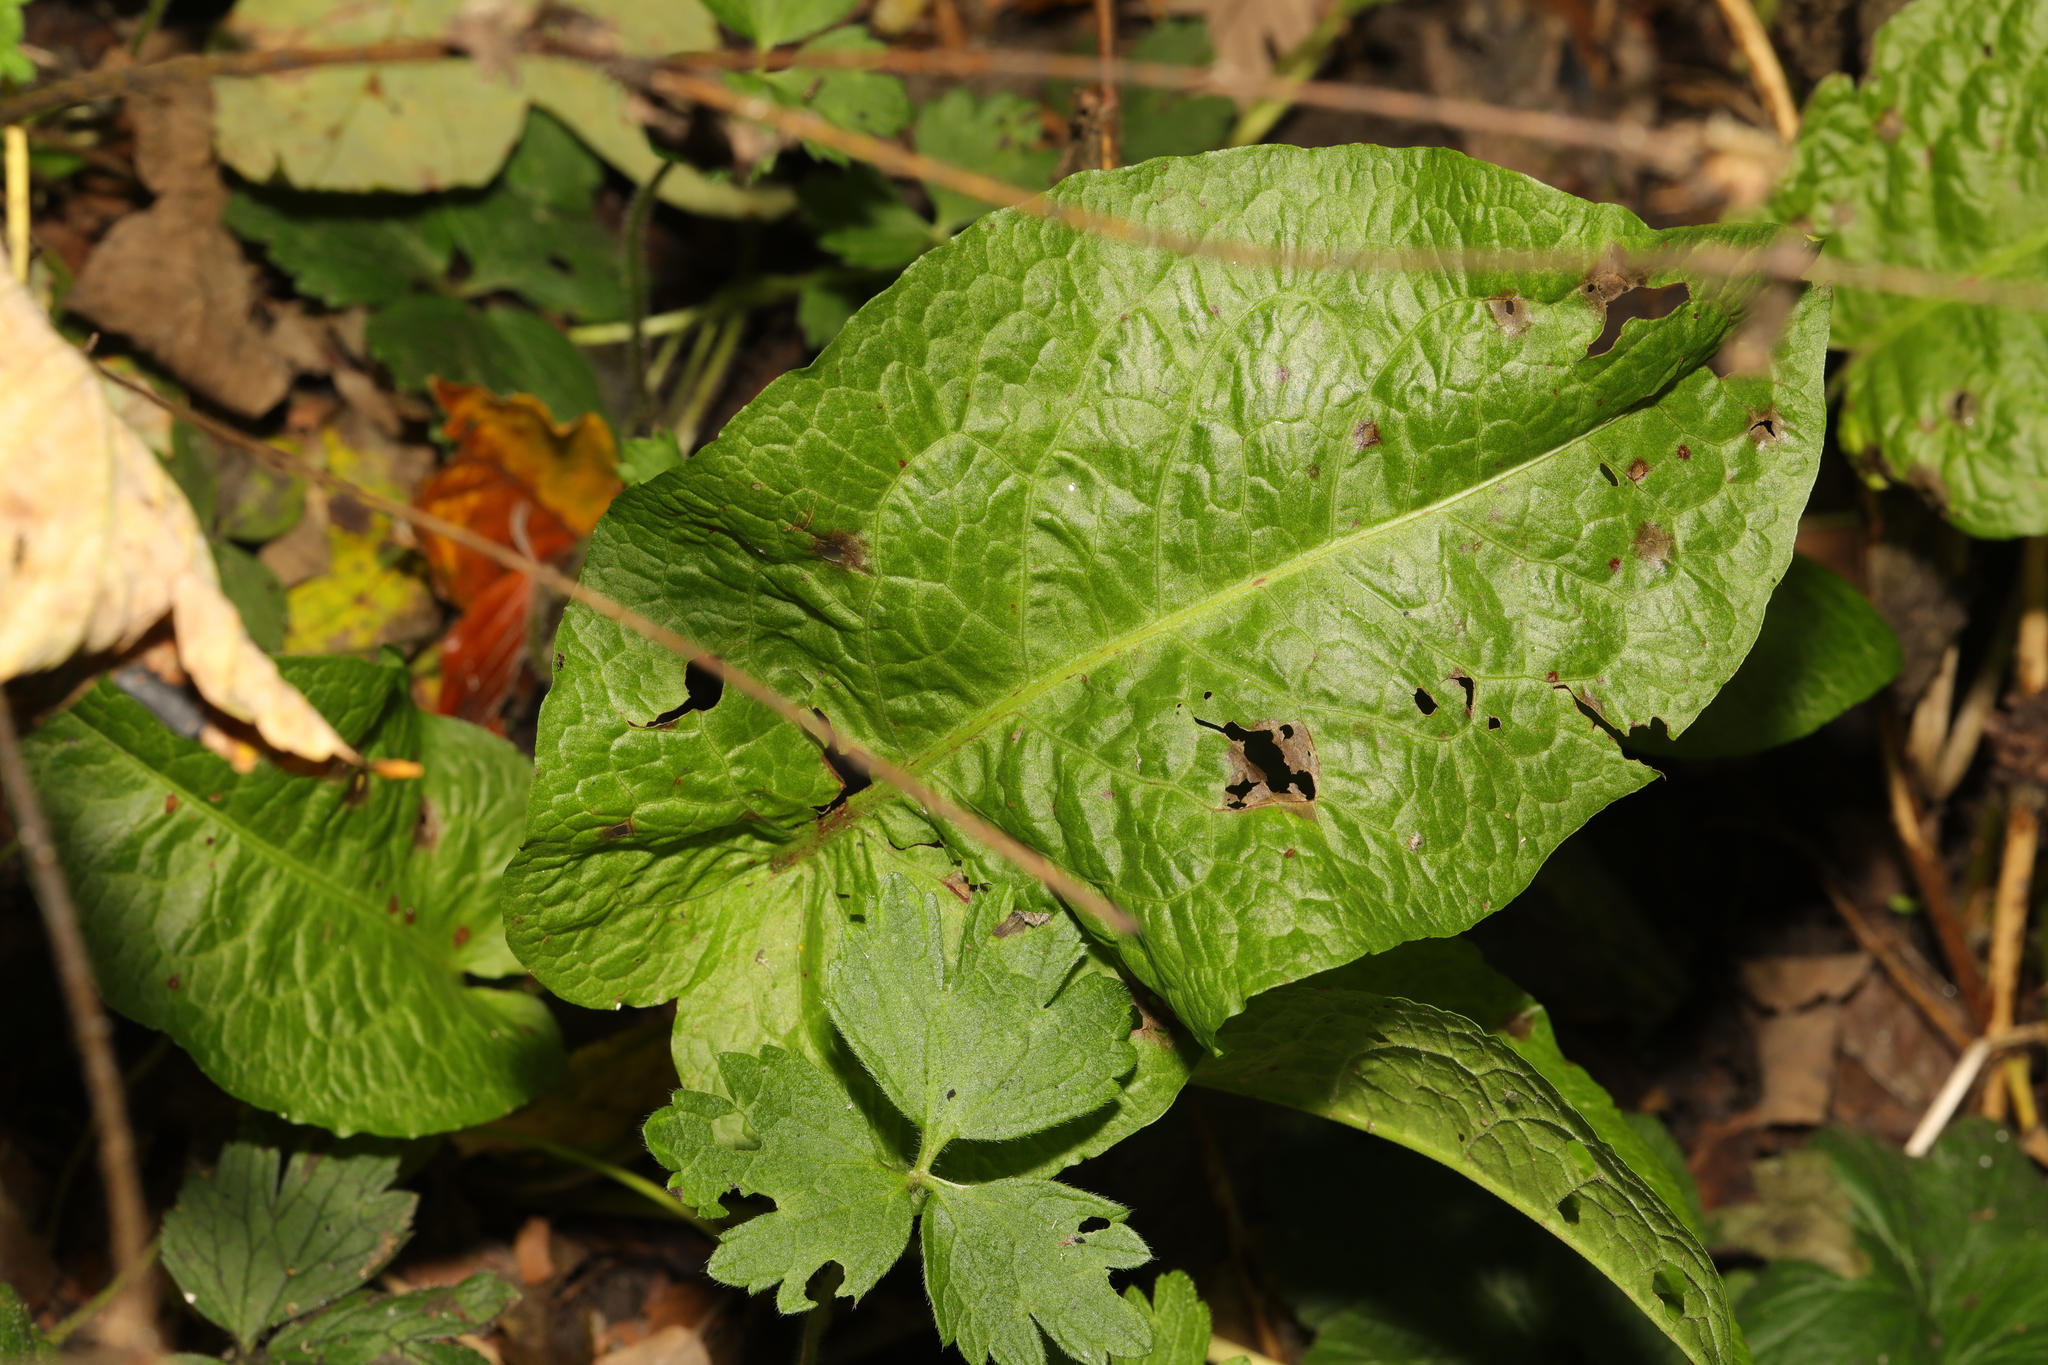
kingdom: Plantae
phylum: Tracheophyta
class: Magnoliopsida
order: Caryophyllales
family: Polygonaceae
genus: Rumex
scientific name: Rumex obtusifolius
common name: Bitter dock
